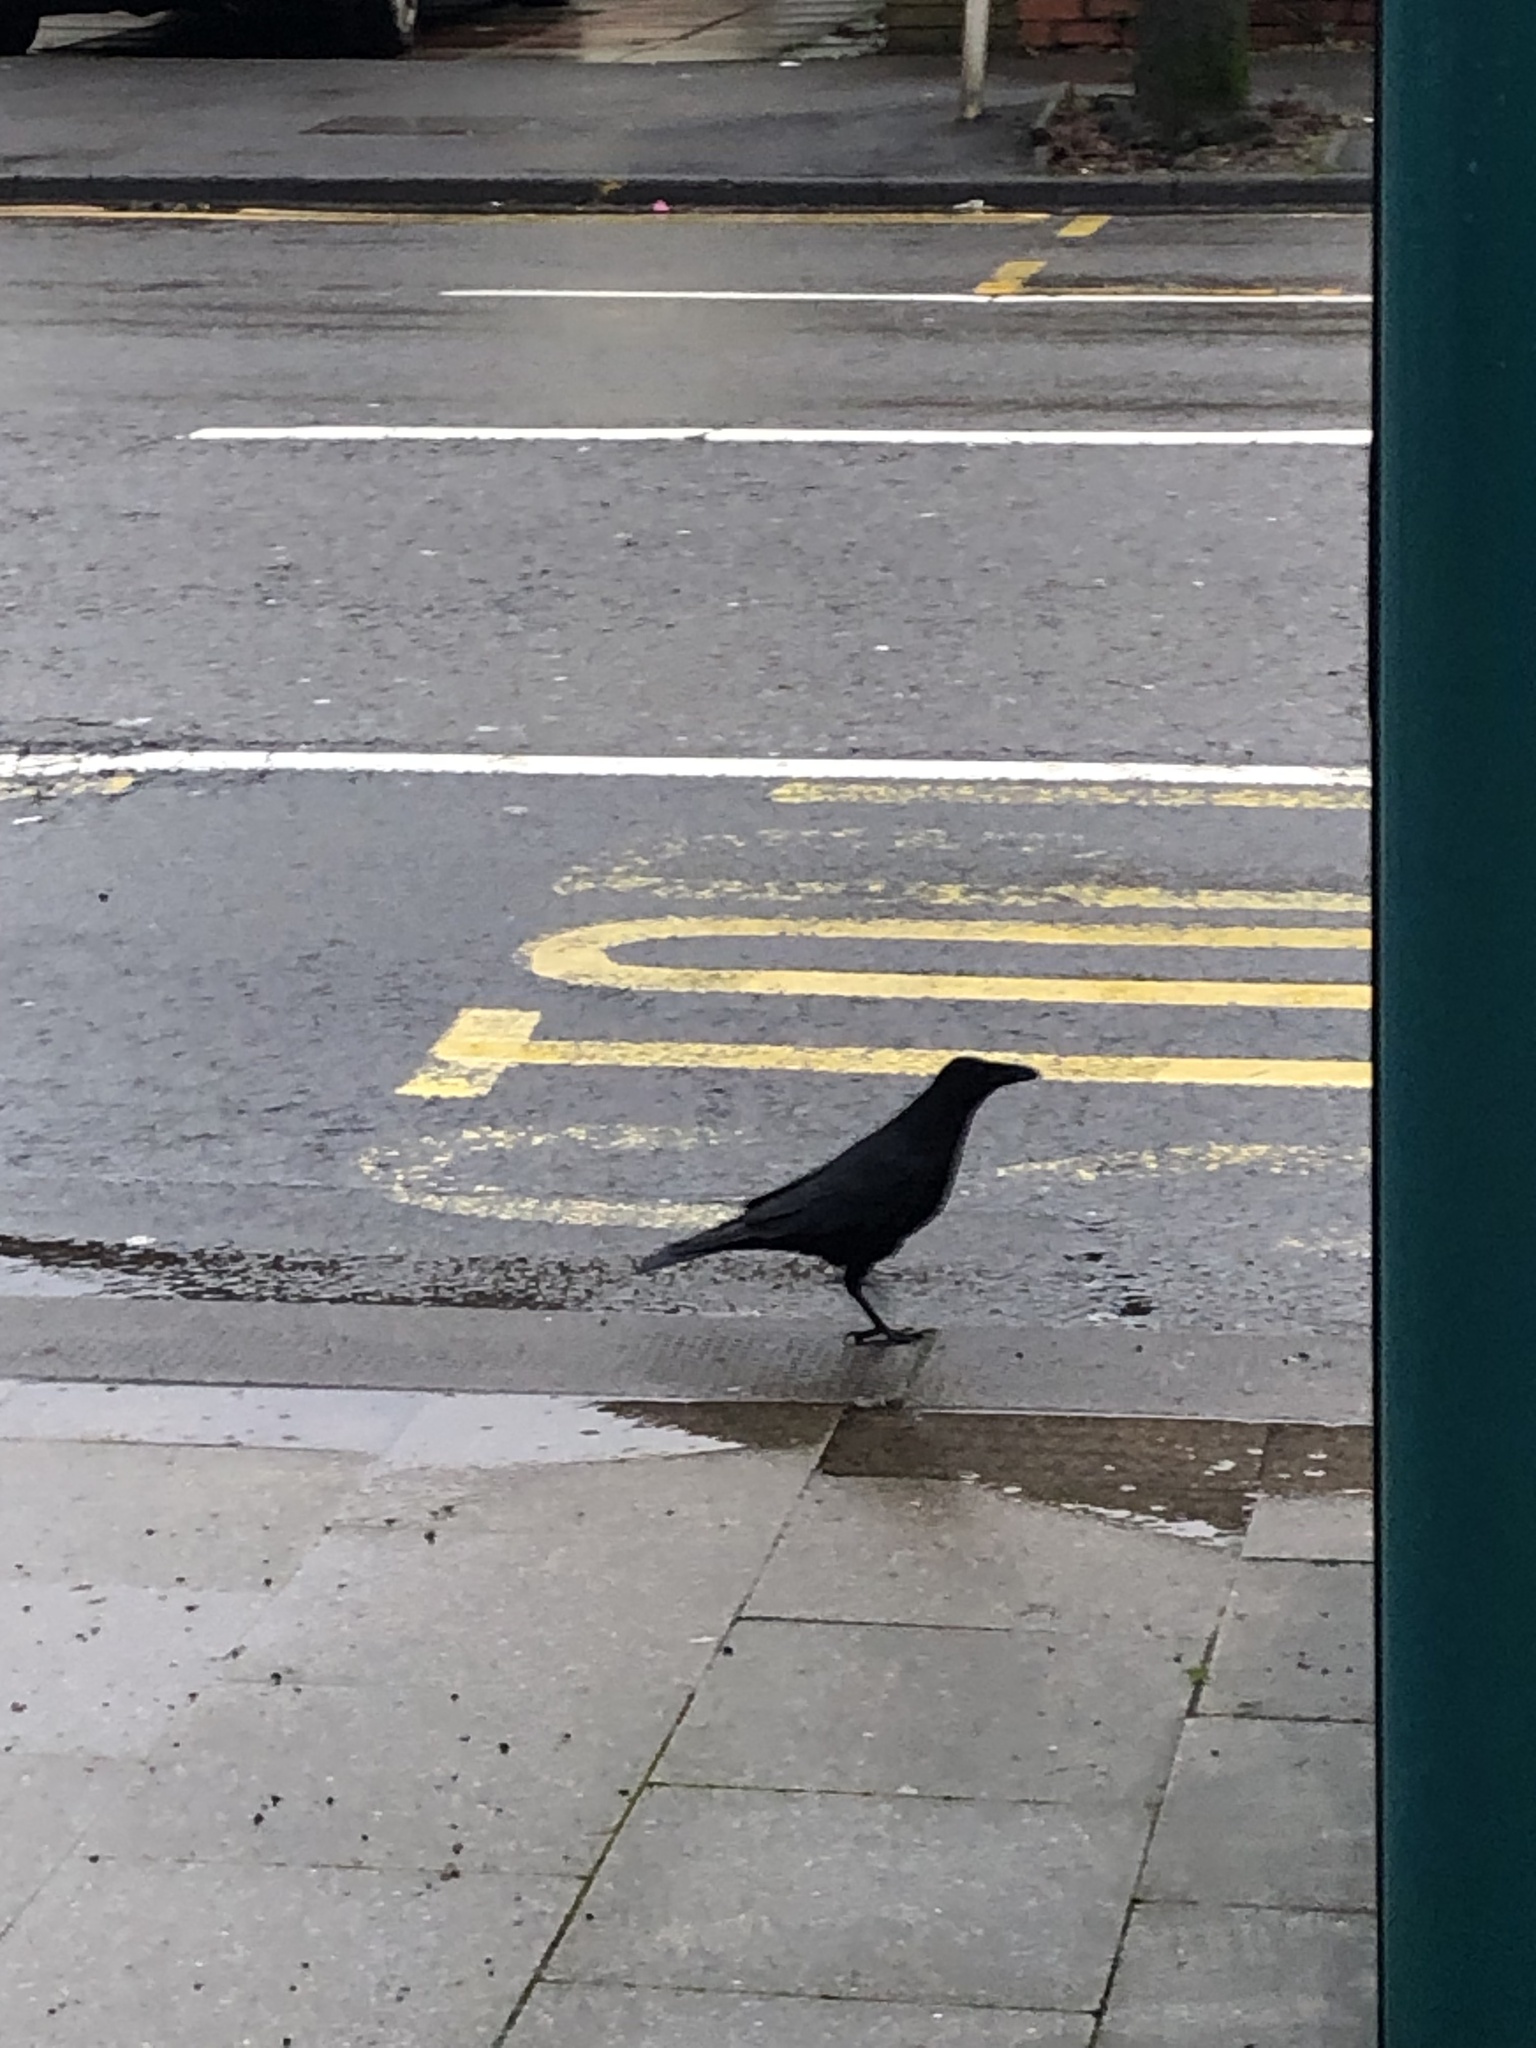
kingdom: Animalia
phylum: Chordata
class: Aves
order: Passeriformes
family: Corvidae
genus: Corvus
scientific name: Corvus corone
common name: Carrion crow
